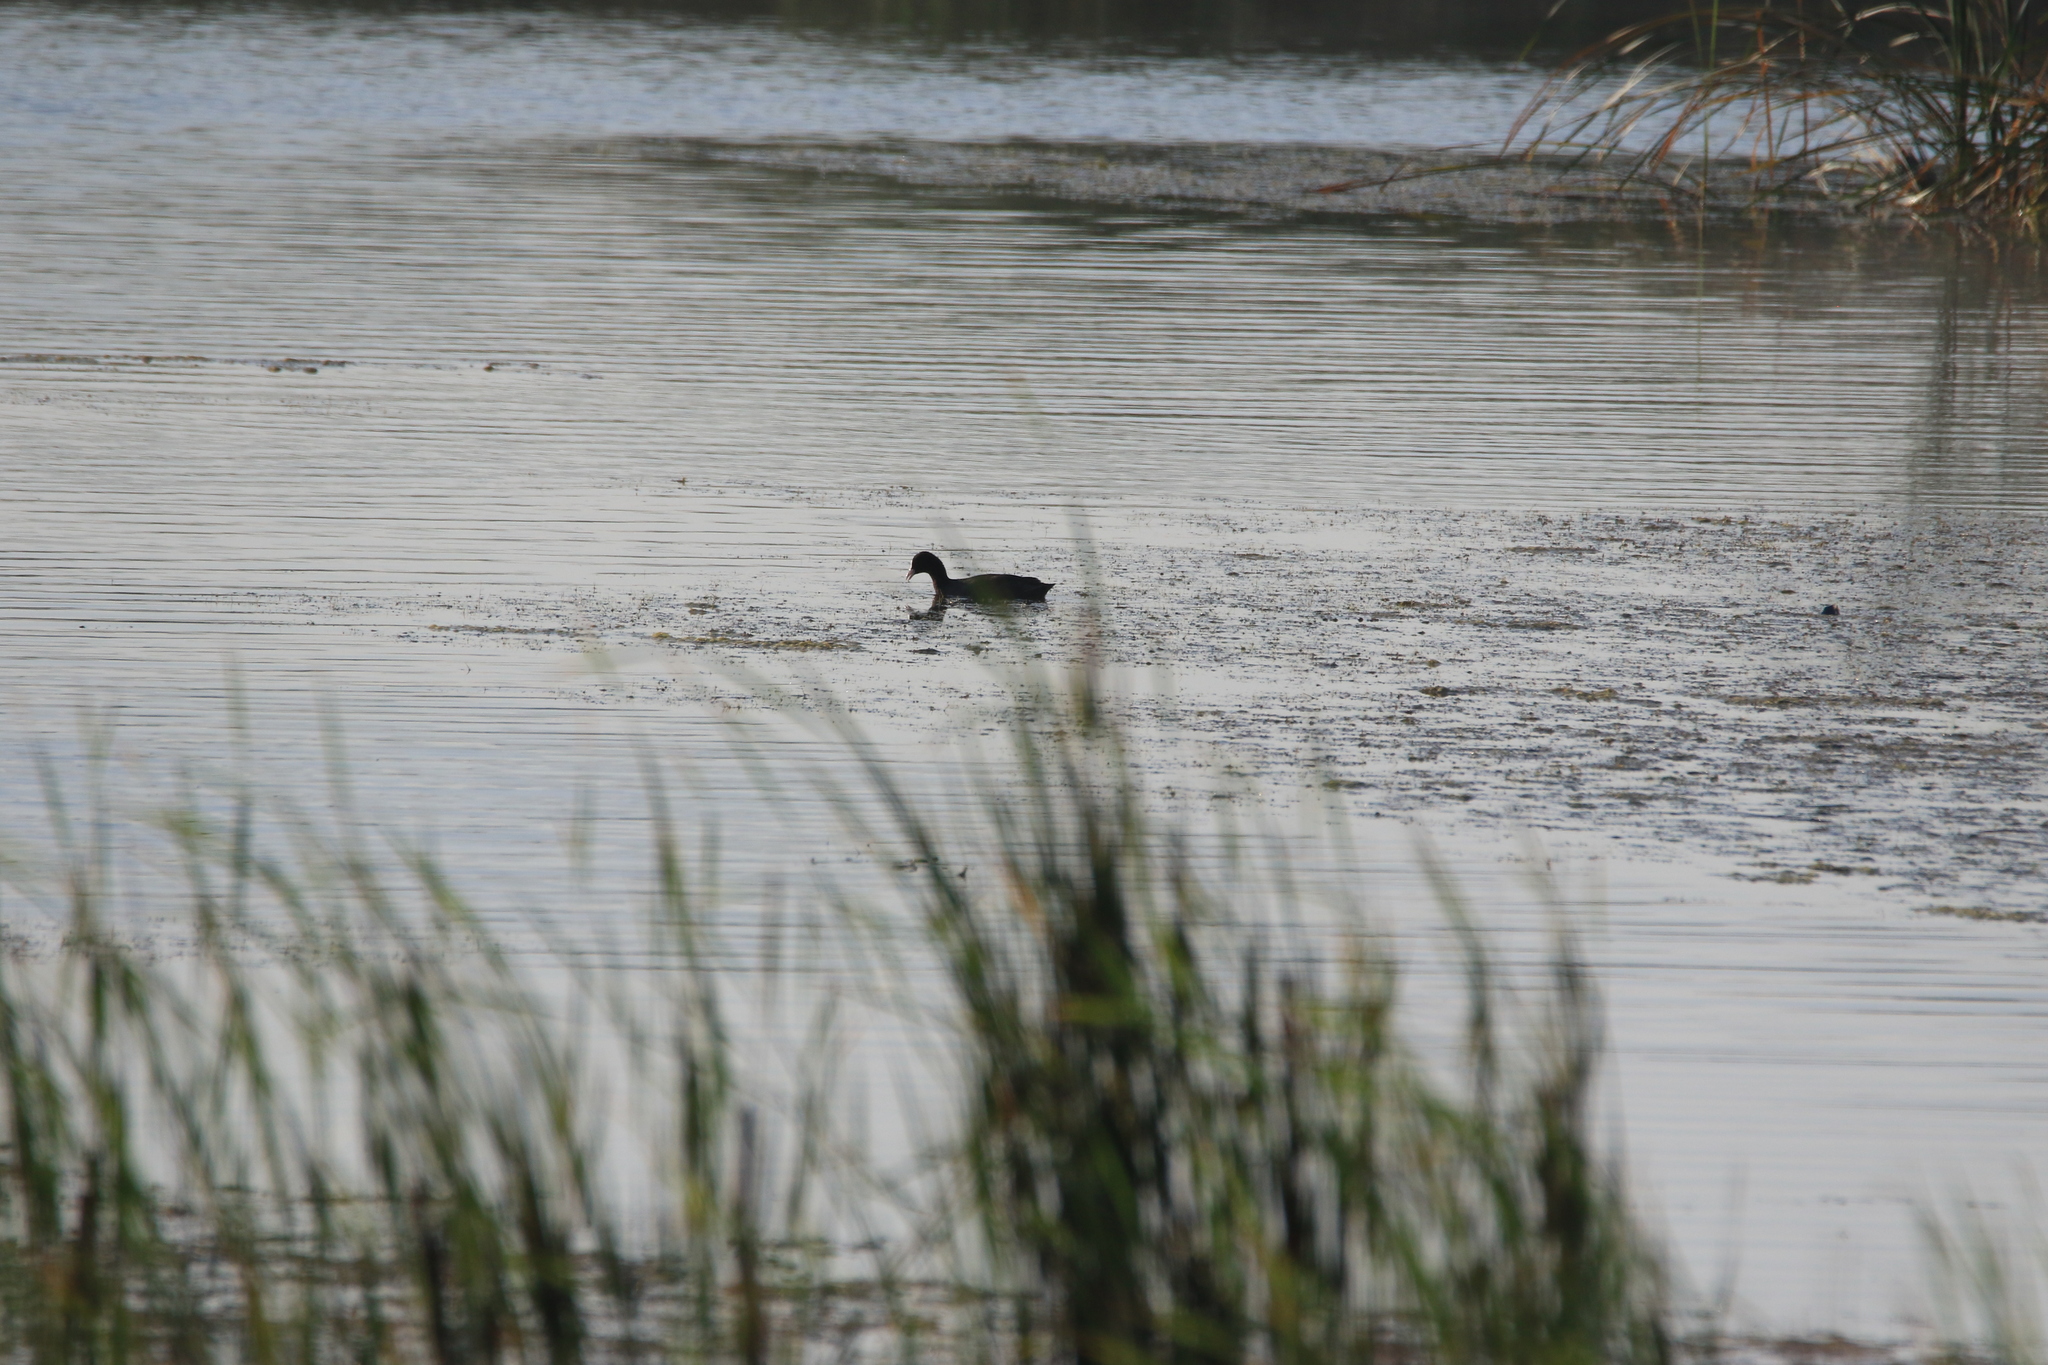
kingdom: Animalia
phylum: Chordata
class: Aves
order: Gruiformes
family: Rallidae
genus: Fulica
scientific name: Fulica atra
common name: Eurasian coot
